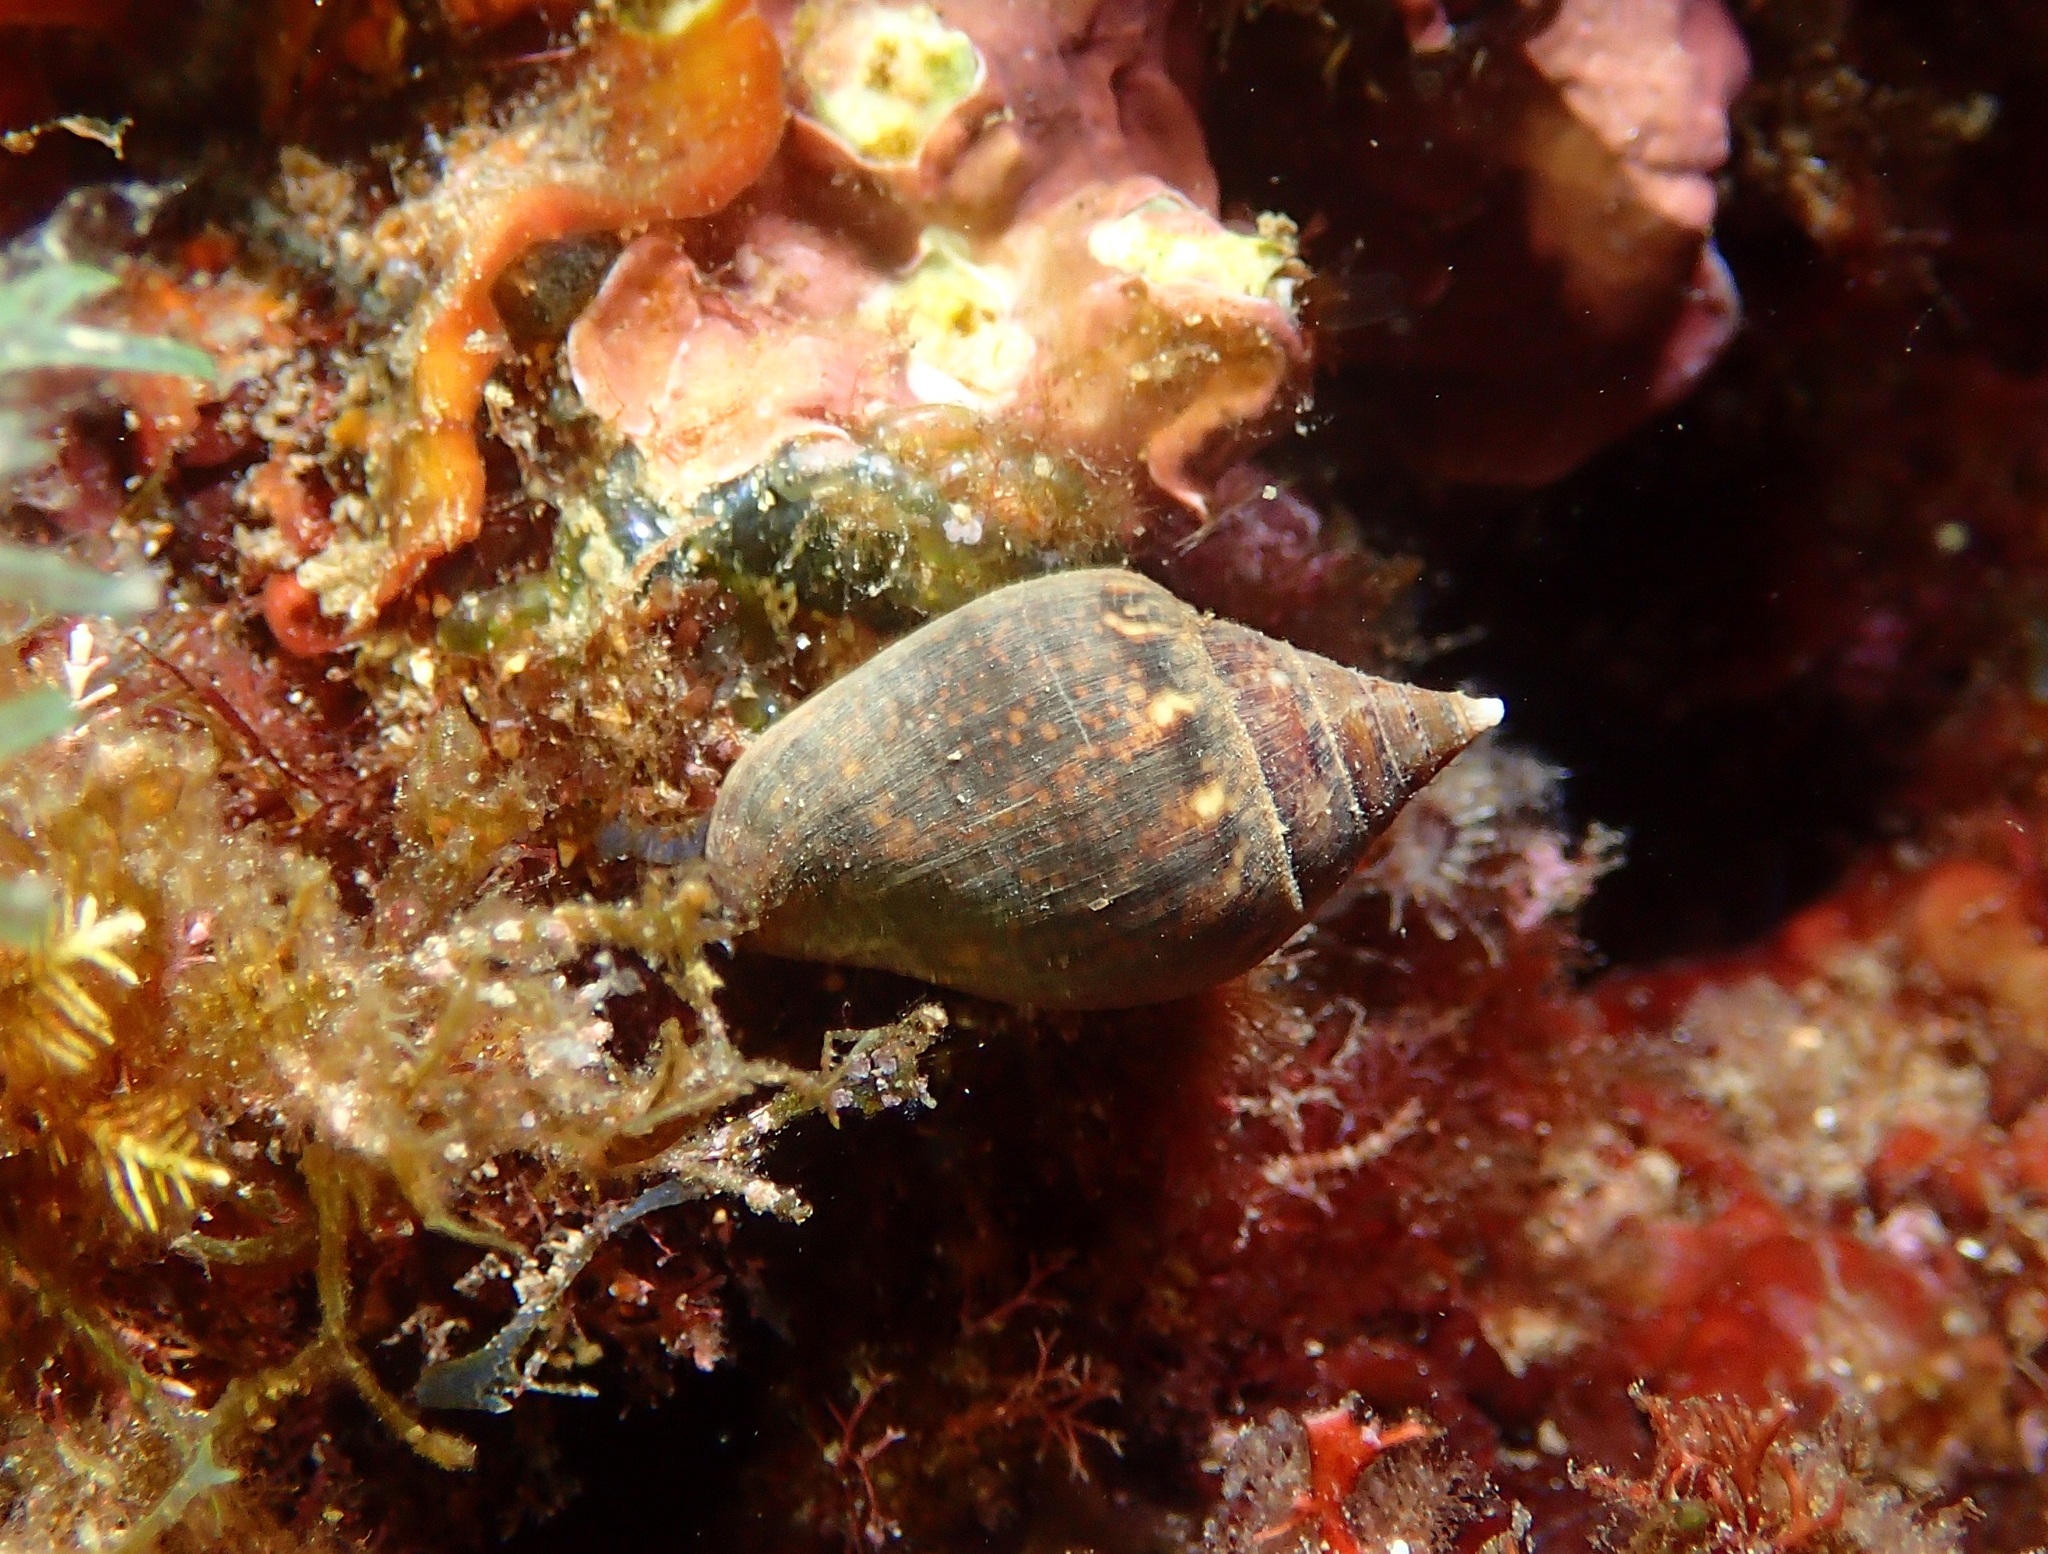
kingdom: Animalia
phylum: Mollusca
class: Gastropoda
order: Neogastropoda
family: Columbellidae
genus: Columbella
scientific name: Columbella rustica
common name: Rustic dove shell
